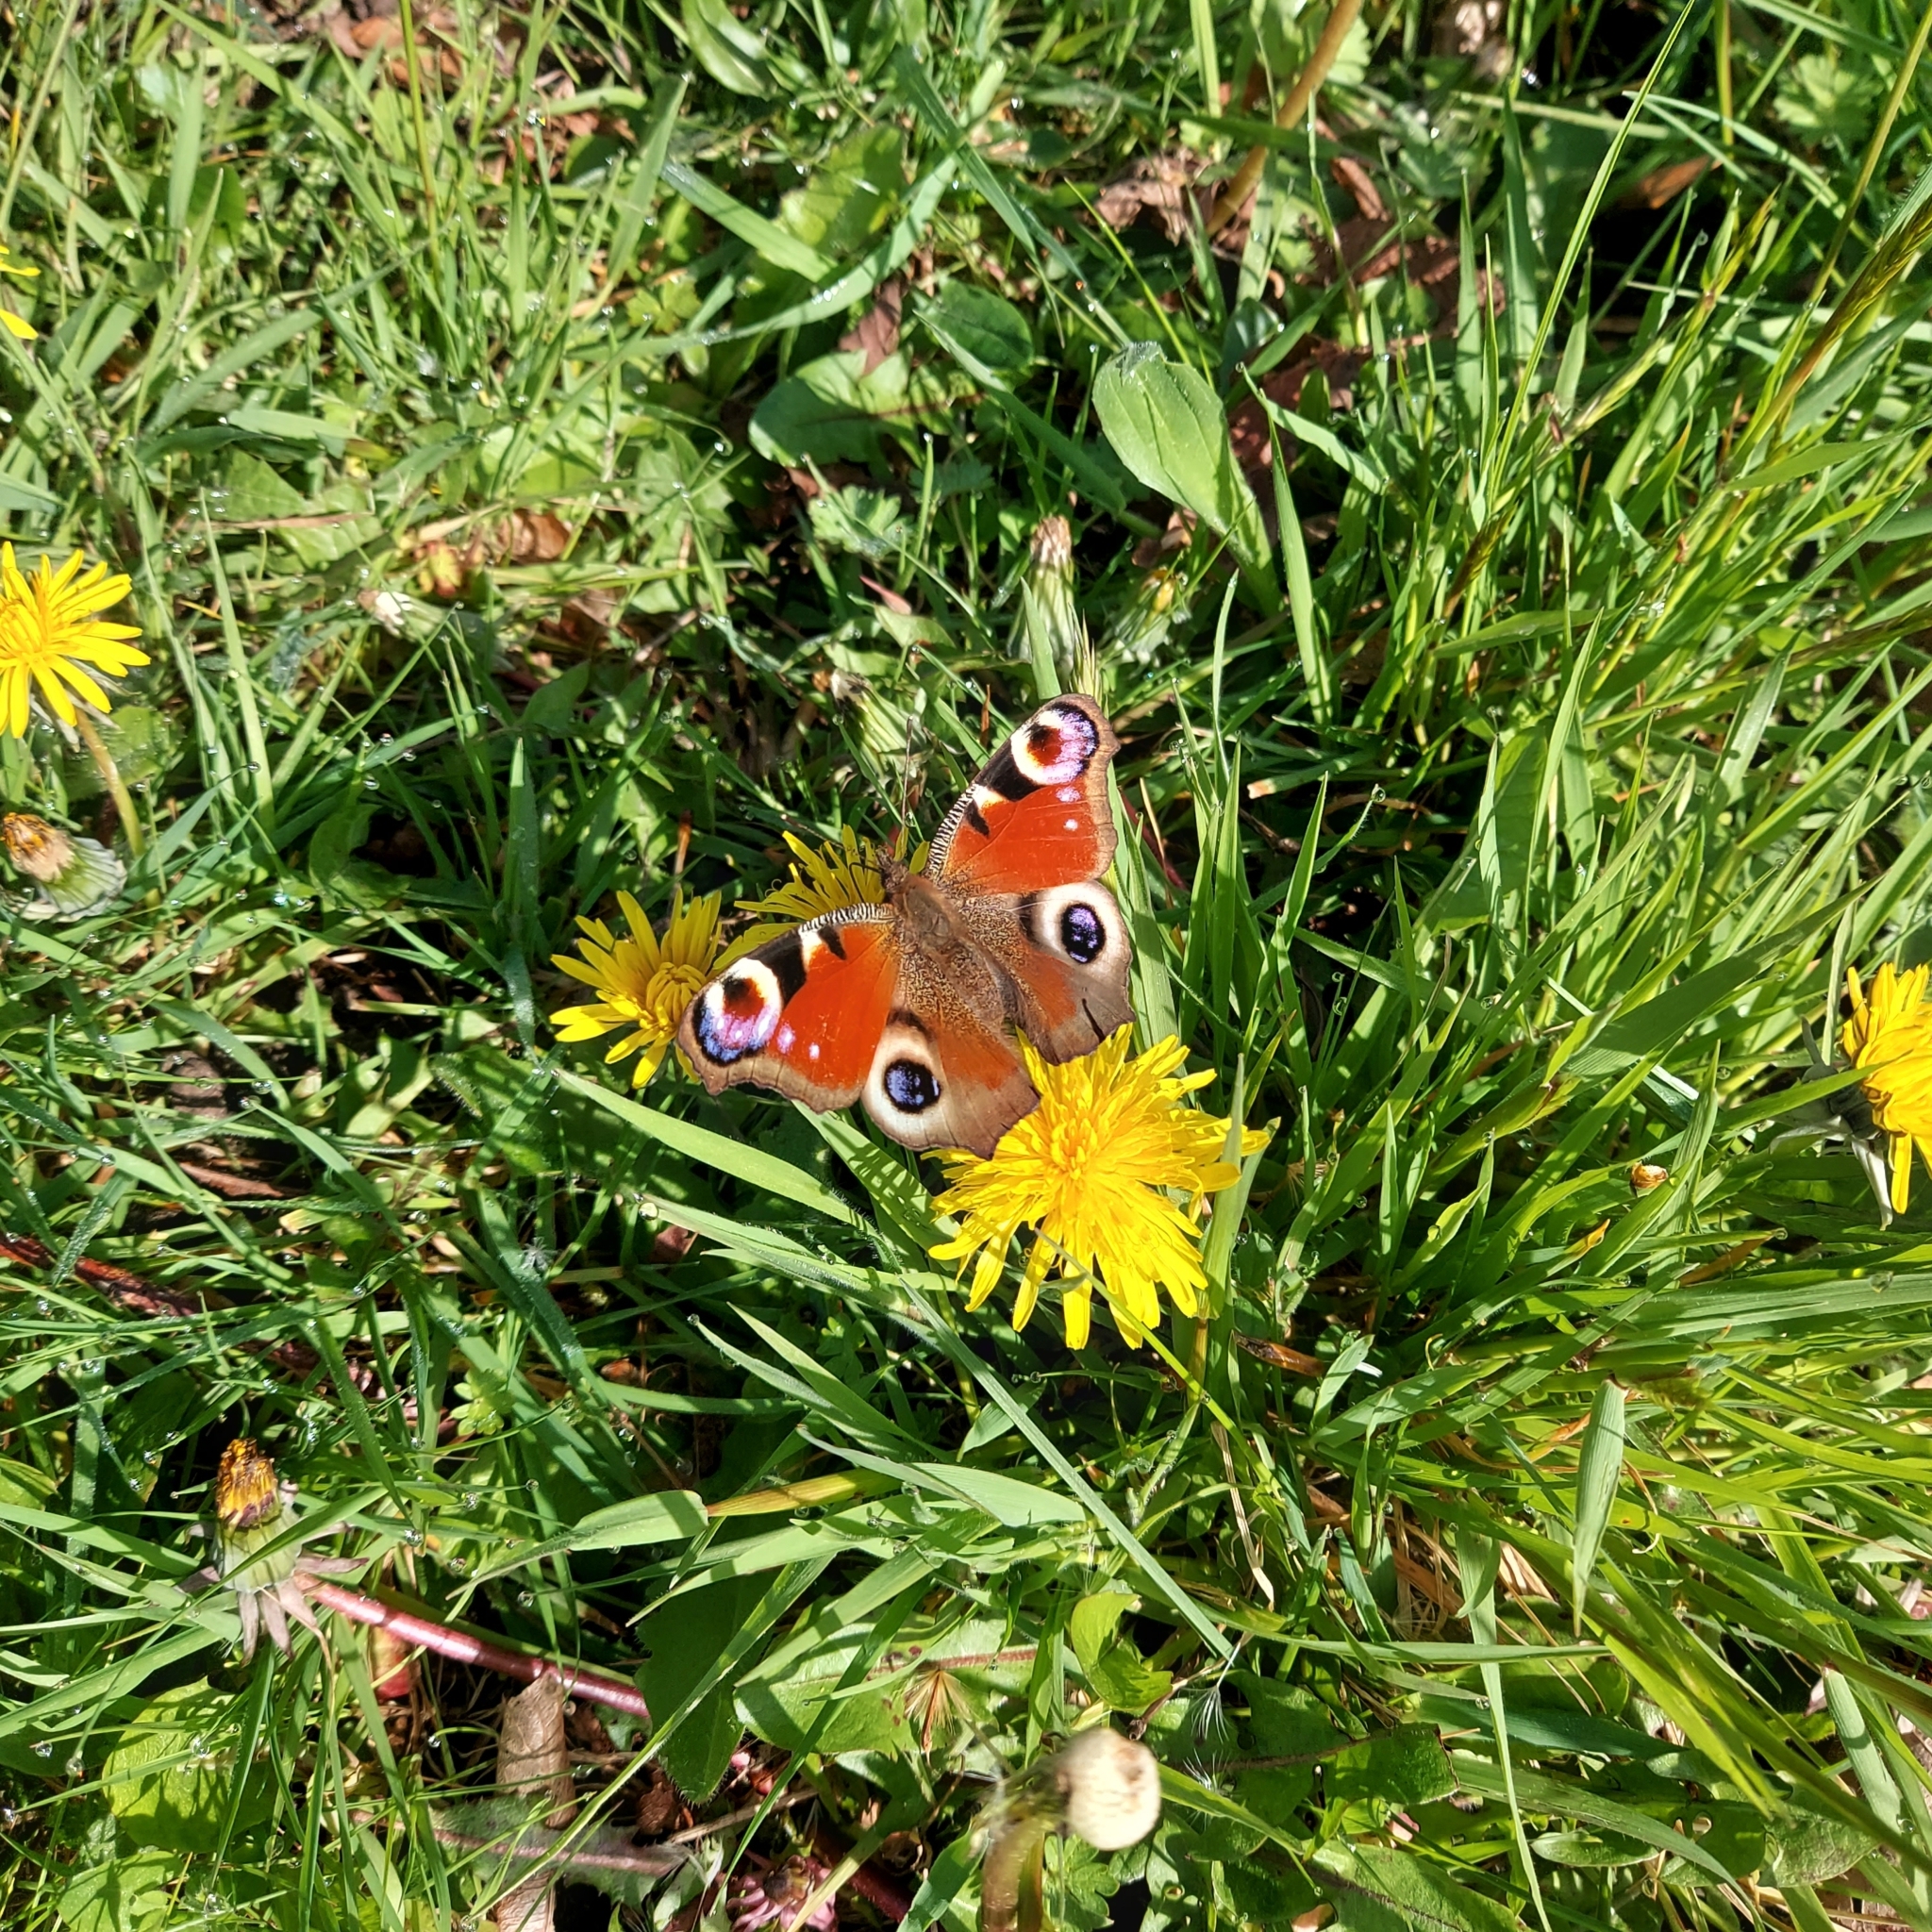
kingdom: Animalia
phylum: Arthropoda
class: Insecta
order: Lepidoptera
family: Nymphalidae
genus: Aglais
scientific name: Aglais io
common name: Peacock
